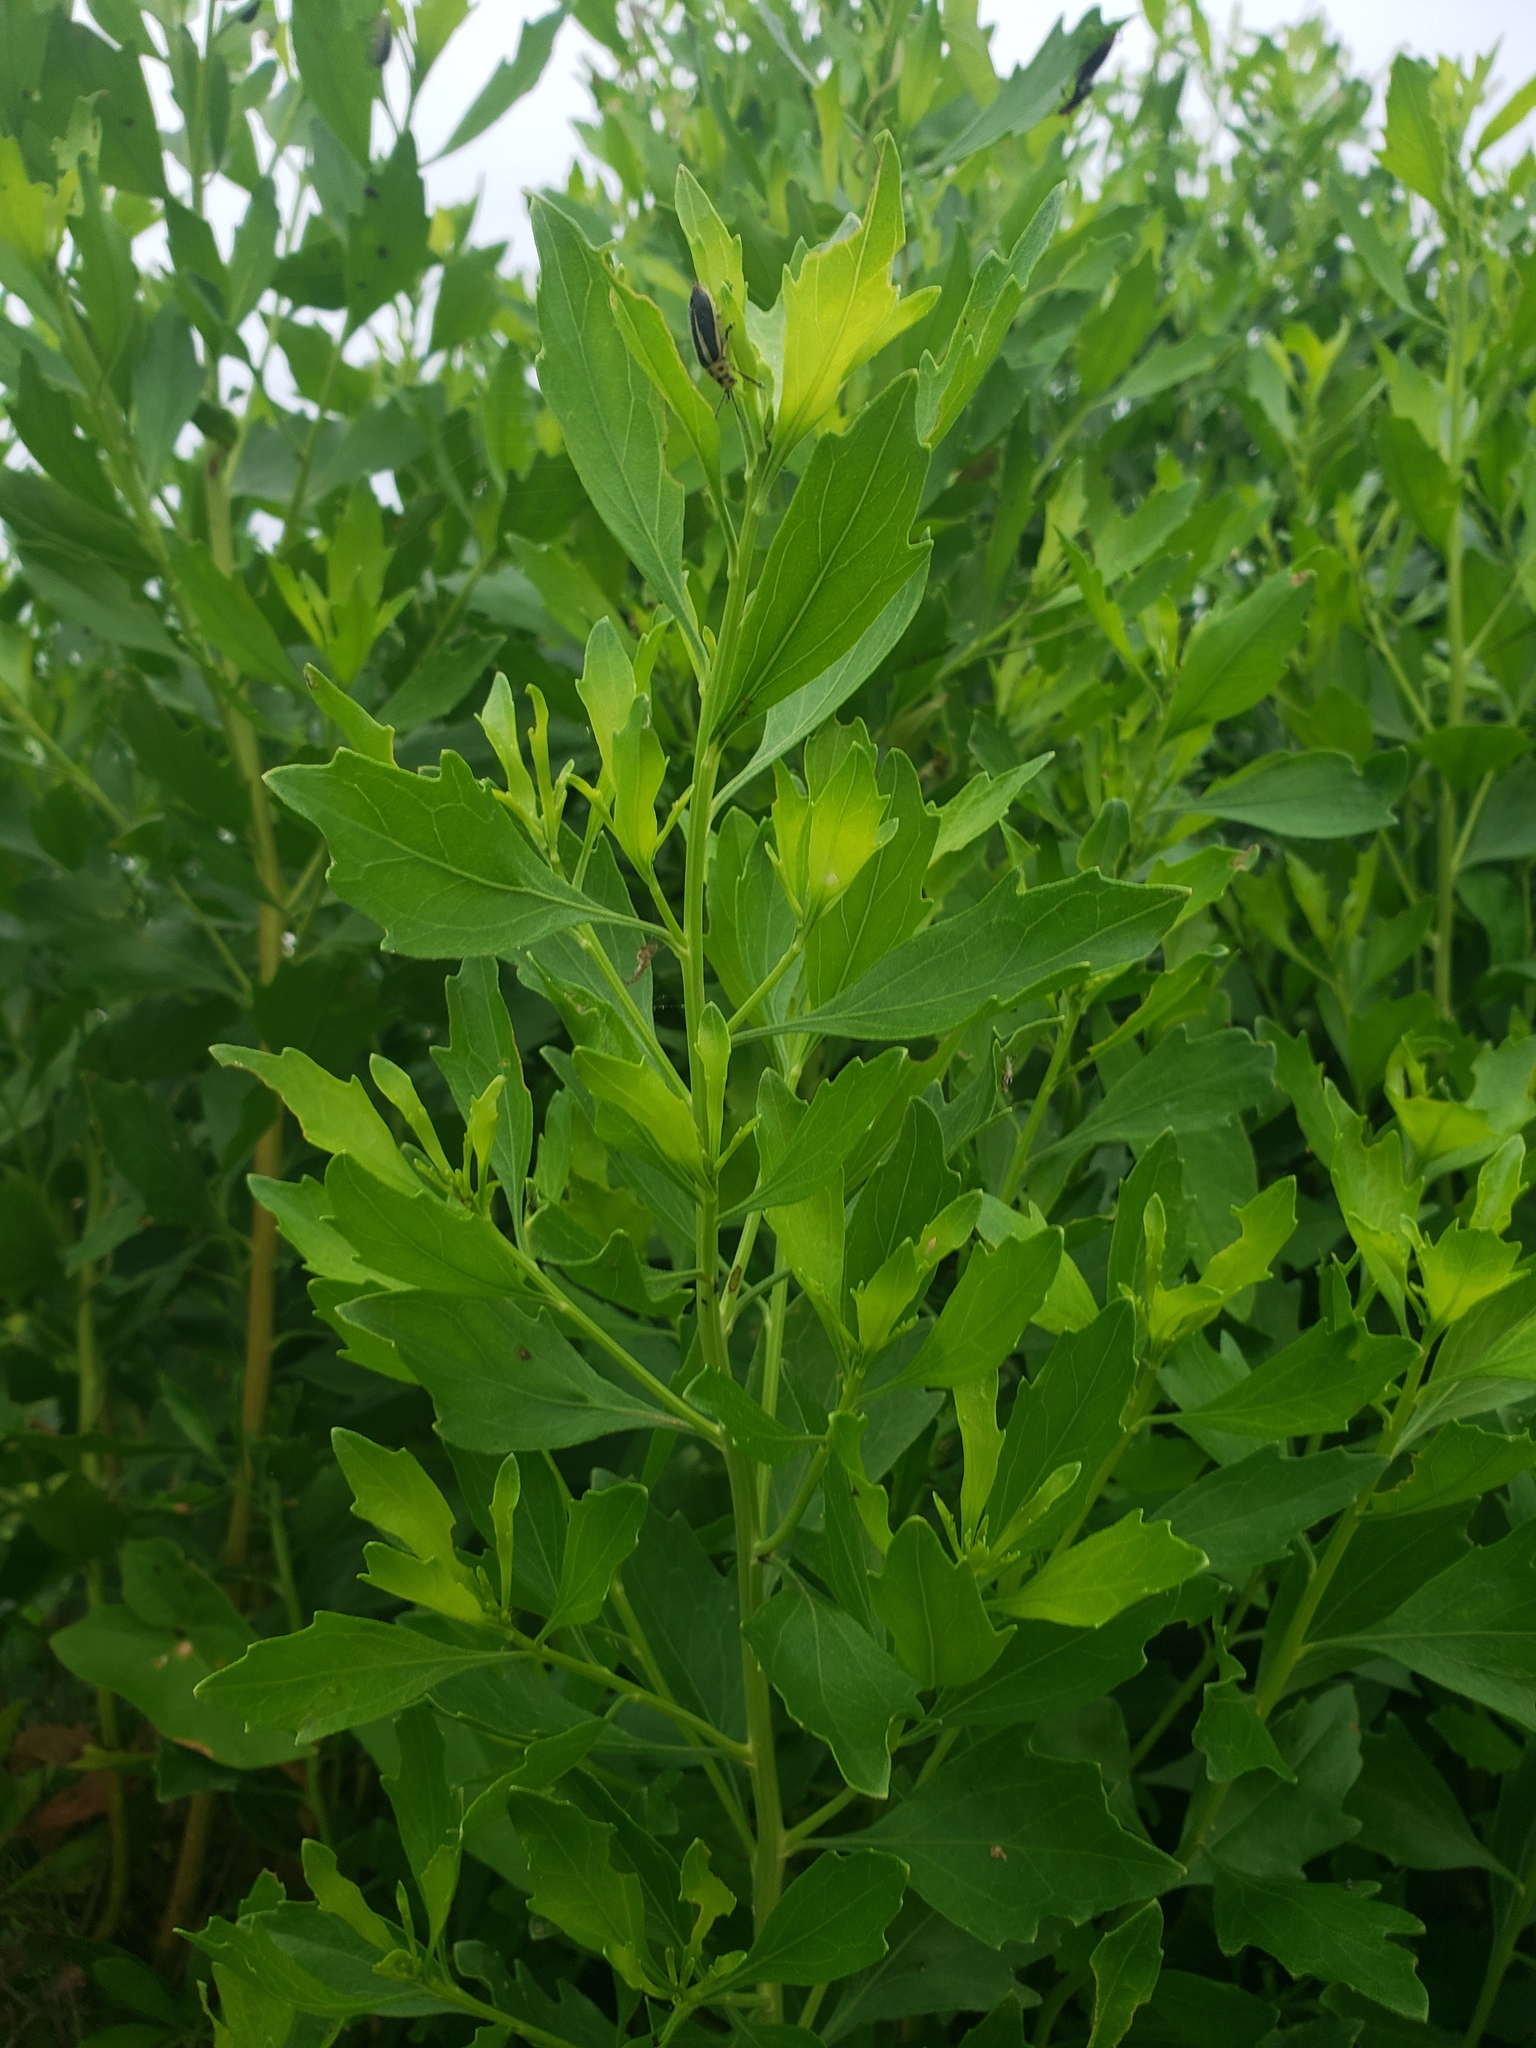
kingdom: Plantae
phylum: Tracheophyta
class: Magnoliopsida
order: Asterales
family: Asteraceae
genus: Baccharis
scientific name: Baccharis halimifolia
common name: Eastern baccharis
